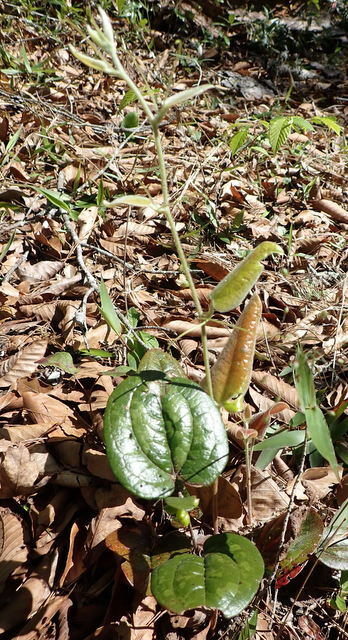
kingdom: Plantae
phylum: Tracheophyta
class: Liliopsida
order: Liliales
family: Smilacaceae
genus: Smilax
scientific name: Smilax pumila
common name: Sarsaparilla-vine
